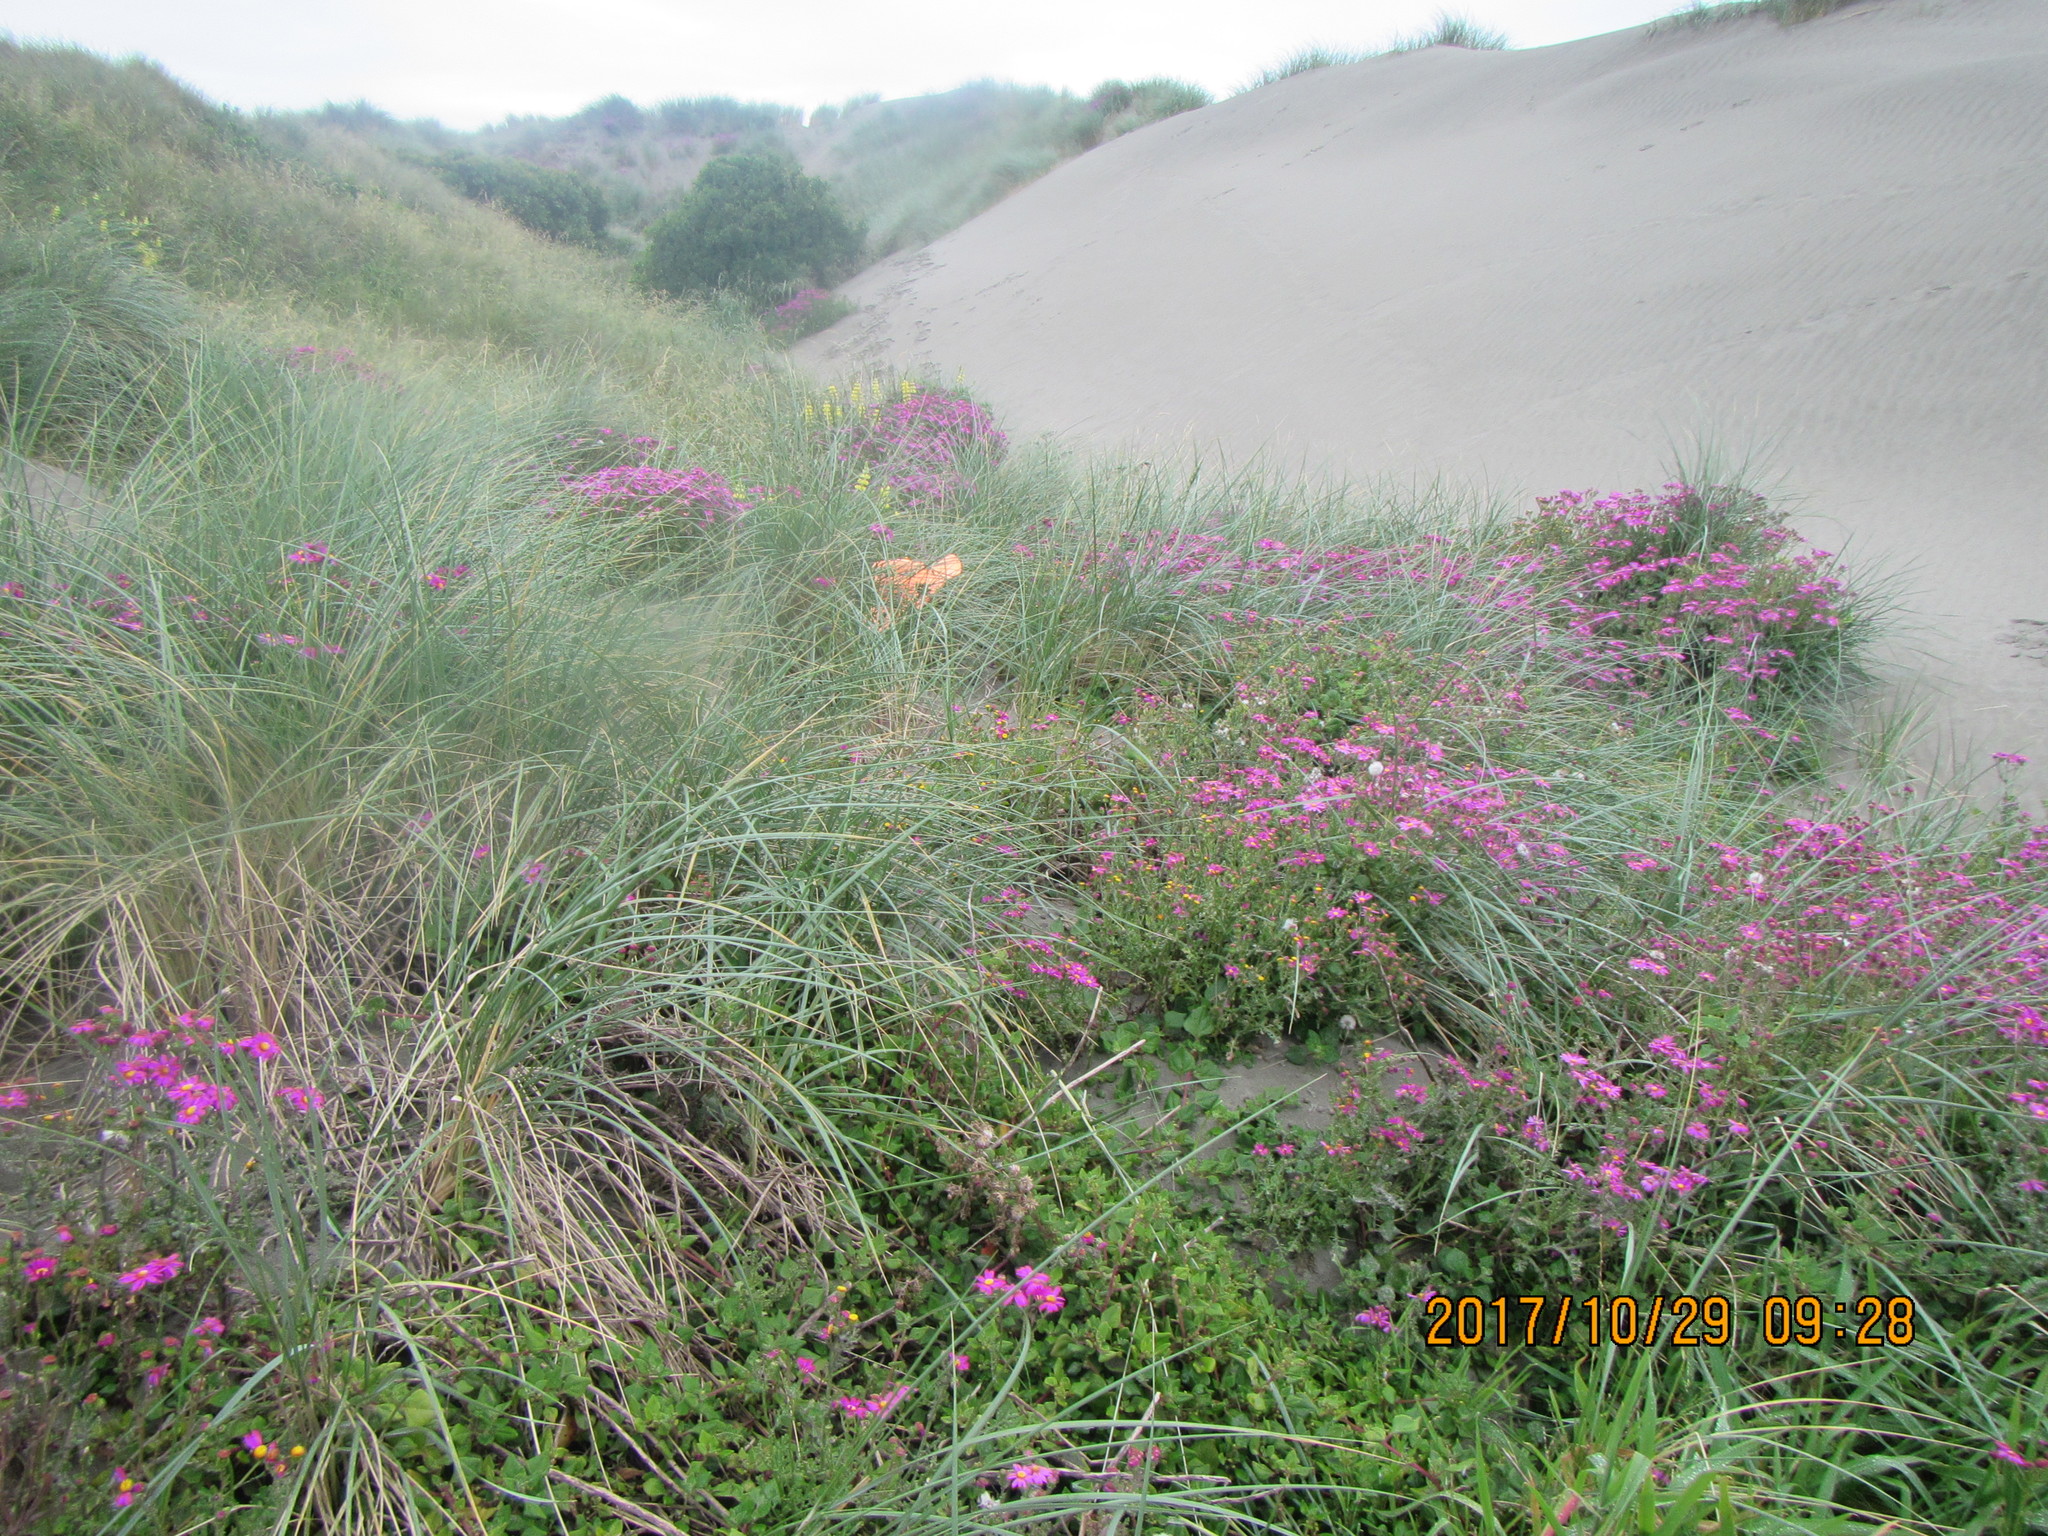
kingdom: Plantae
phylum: Tracheophyta
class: Magnoliopsida
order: Caryophyllales
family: Aizoaceae
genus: Tetragonia
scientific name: Tetragonia implexicoma
